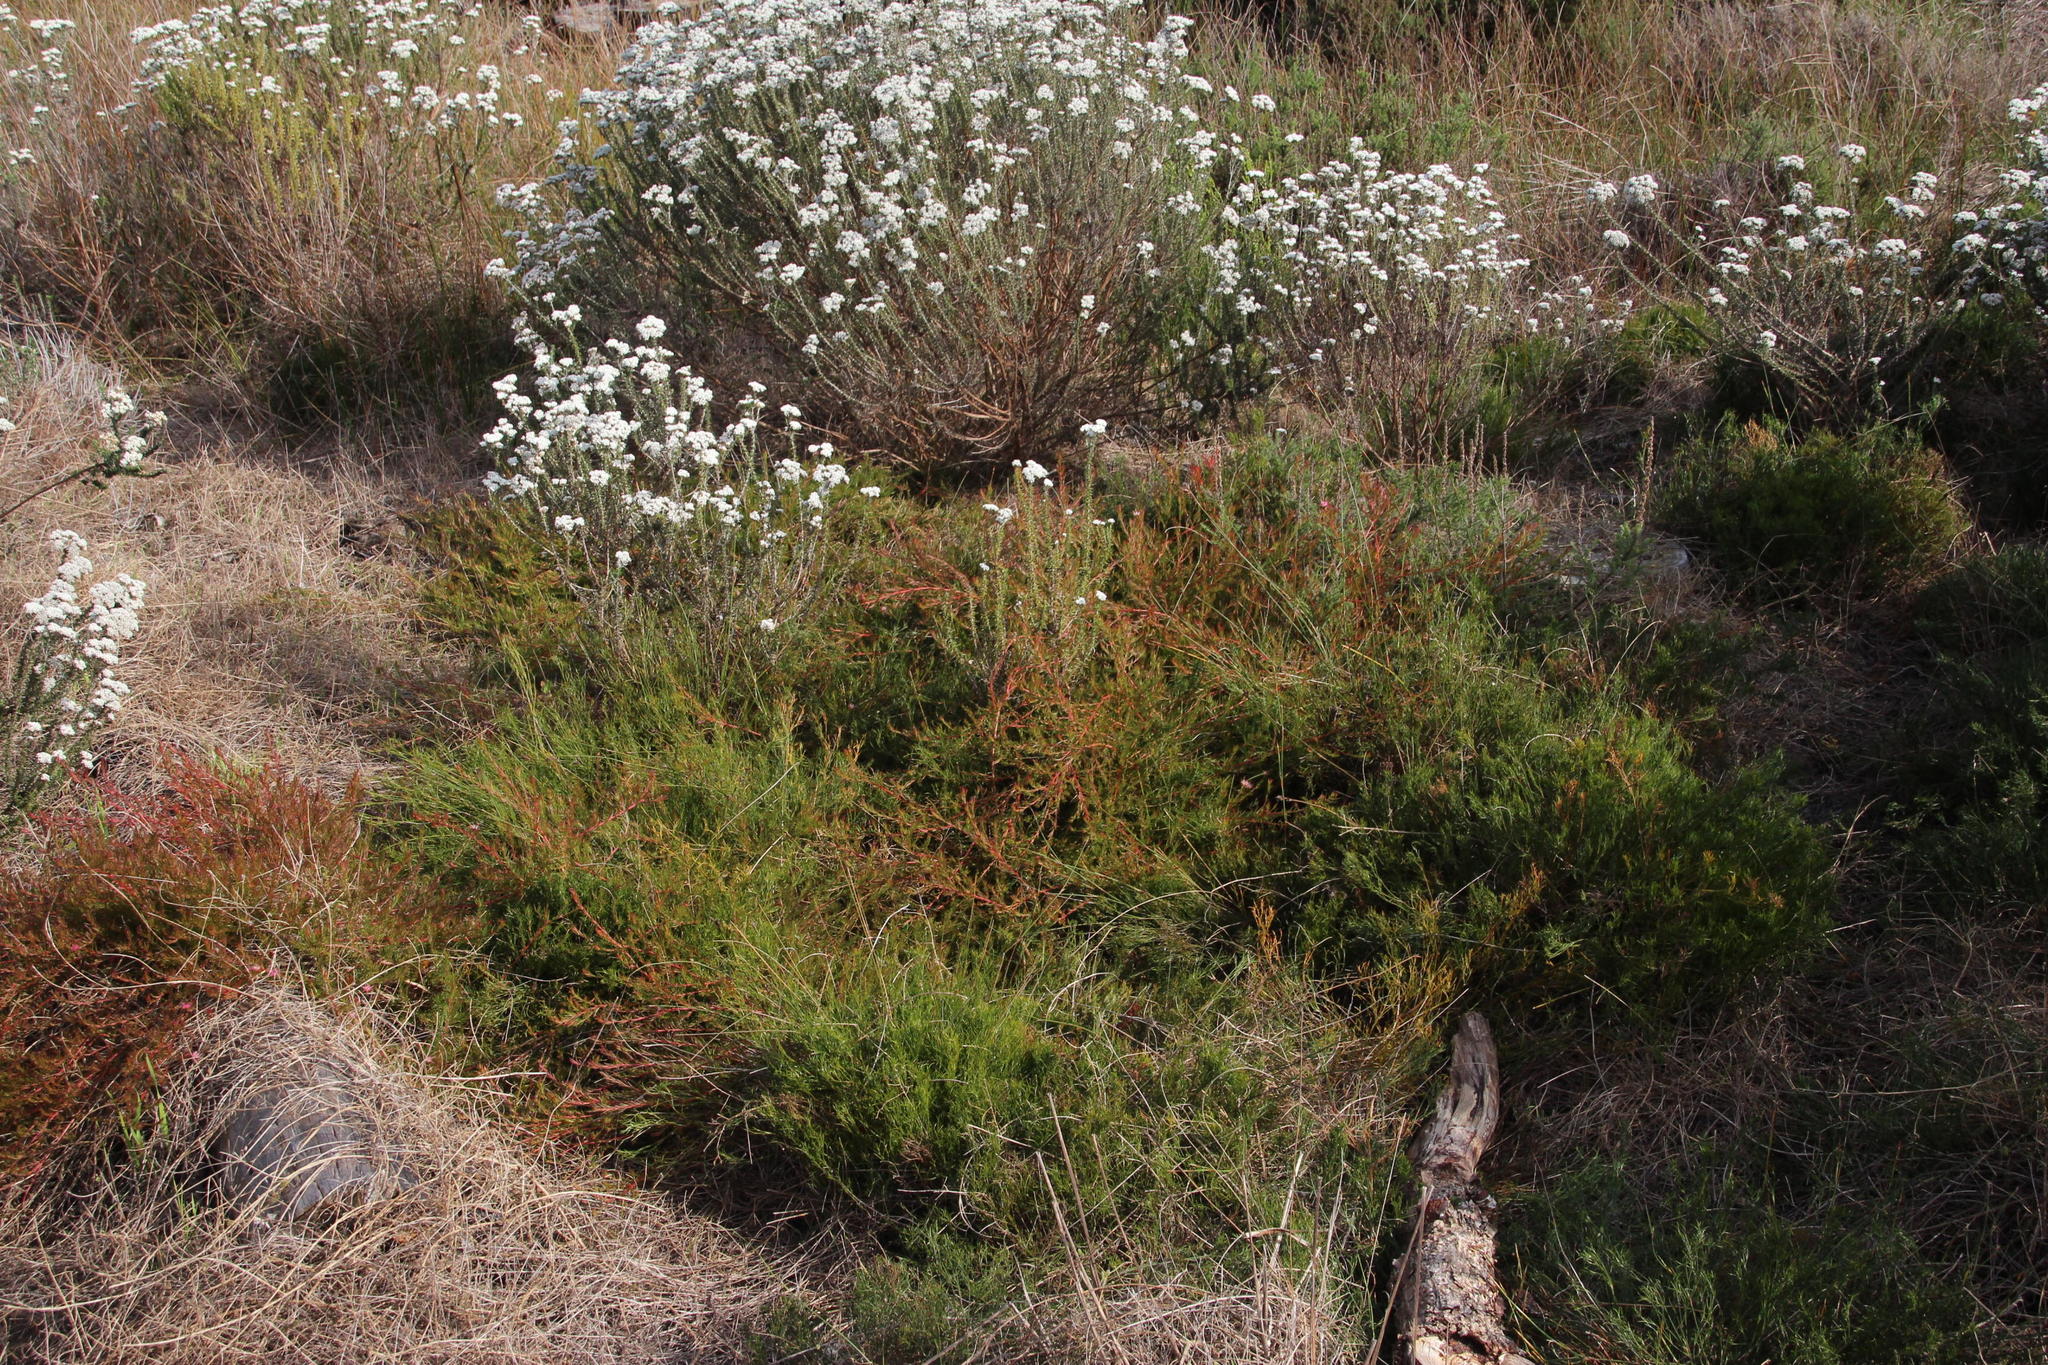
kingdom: Plantae
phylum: Tracheophyta
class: Magnoliopsida
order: Proteales
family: Proteaceae
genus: Diastella
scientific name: Diastella proteoides
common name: Flats silkypuff
